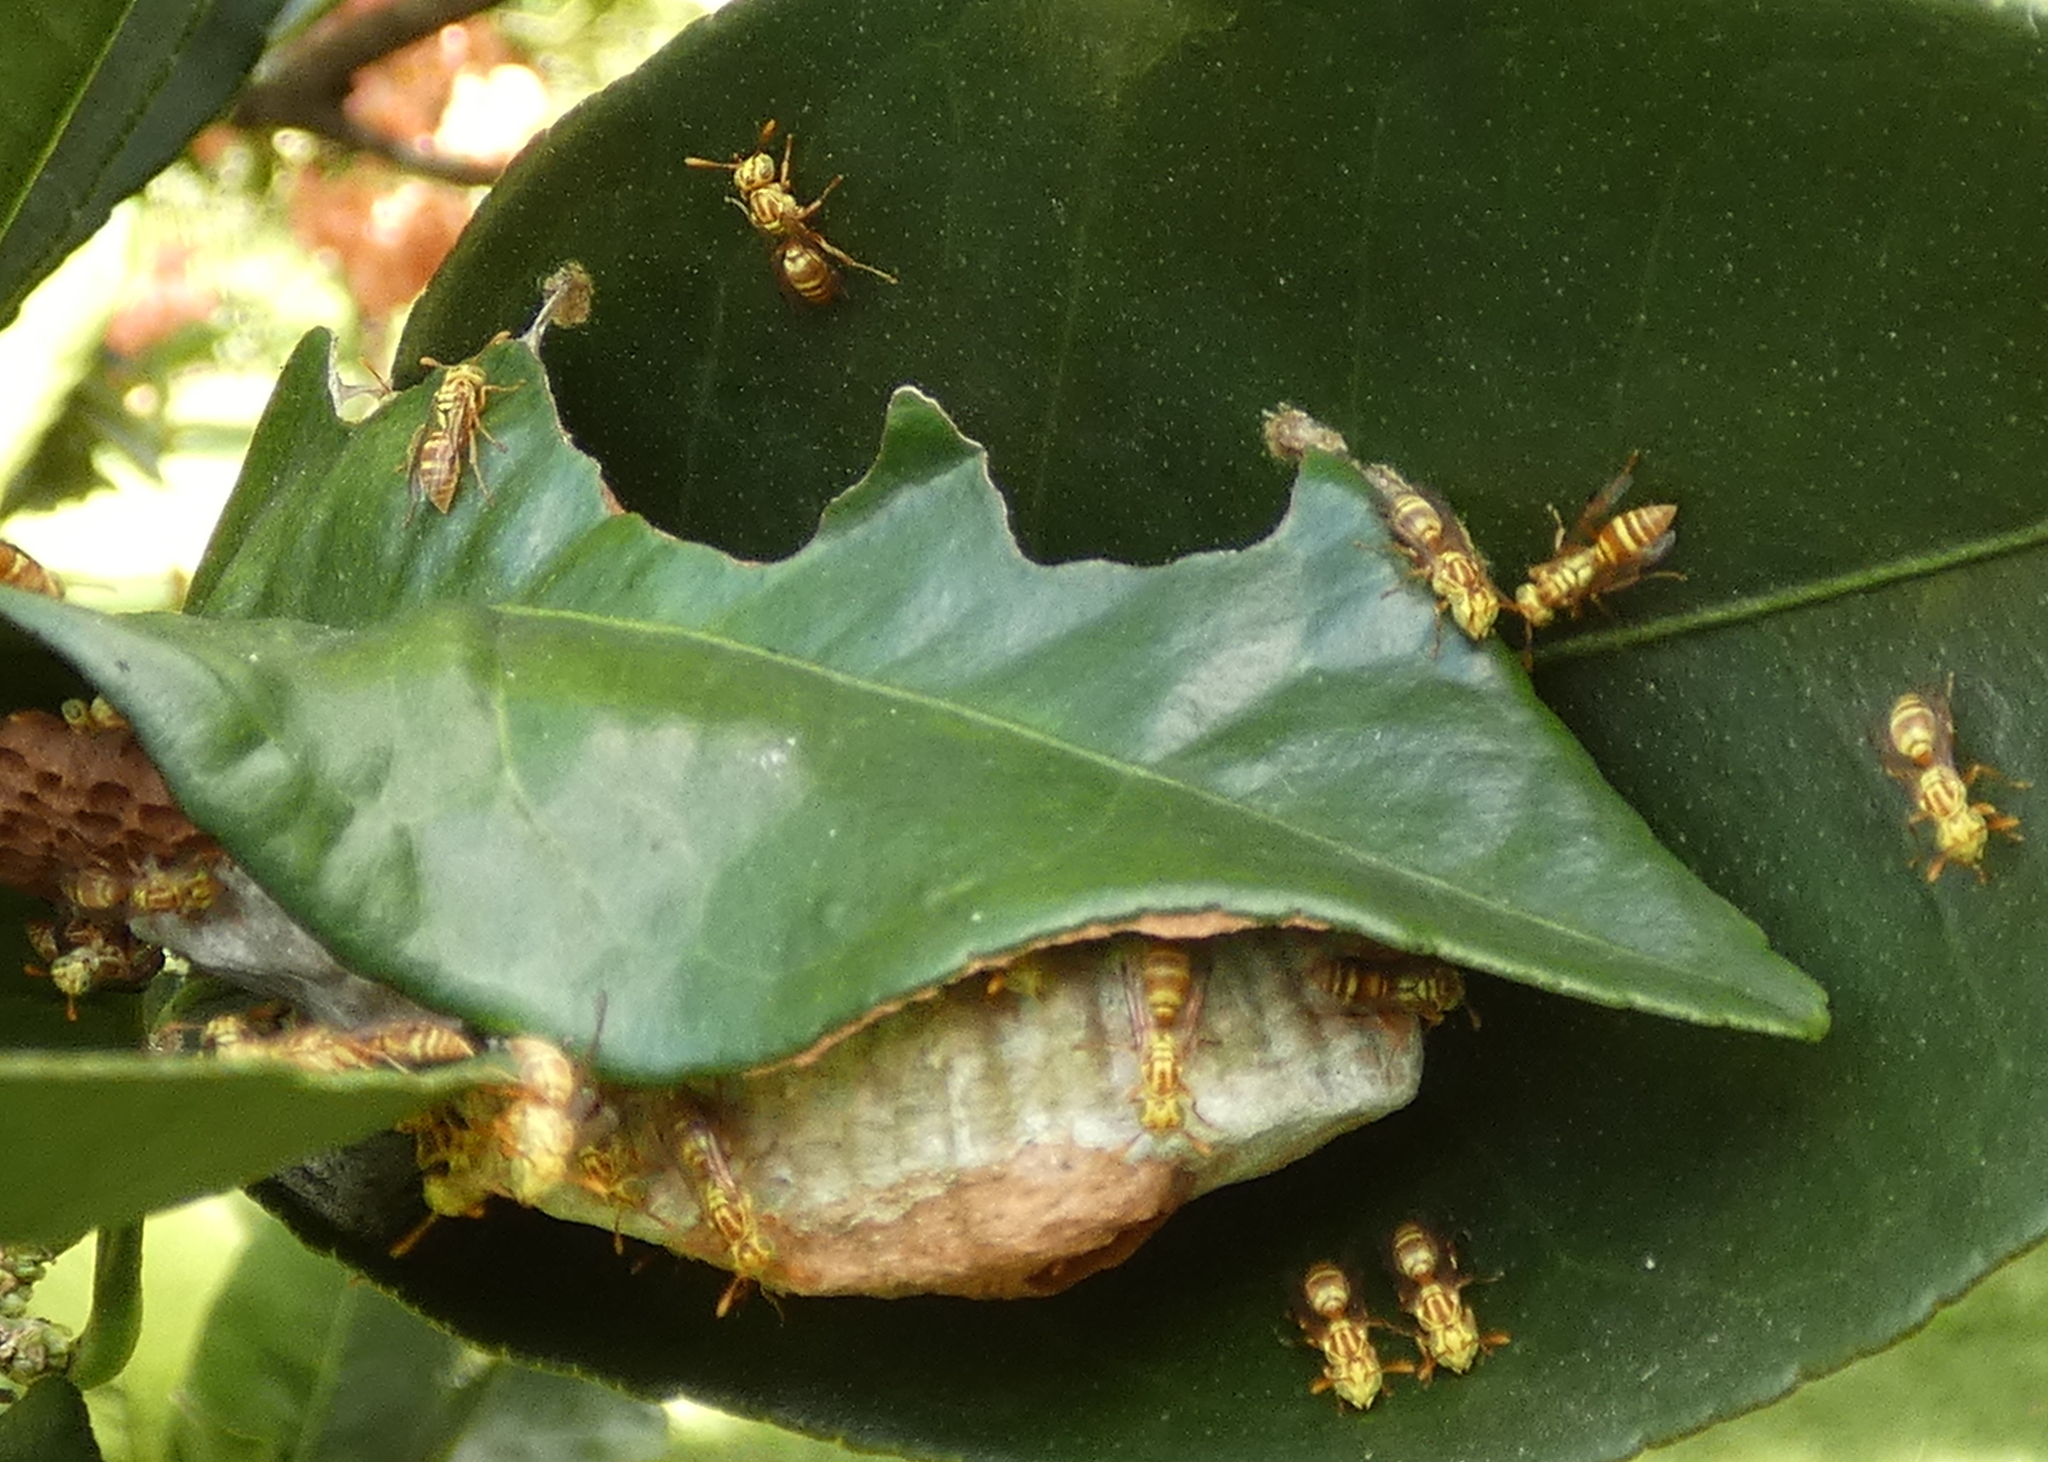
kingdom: Animalia
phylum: Arthropoda
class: Insecta
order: Hymenoptera
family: Vespidae
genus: Protopolybia
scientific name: Protopolybia potiguara
